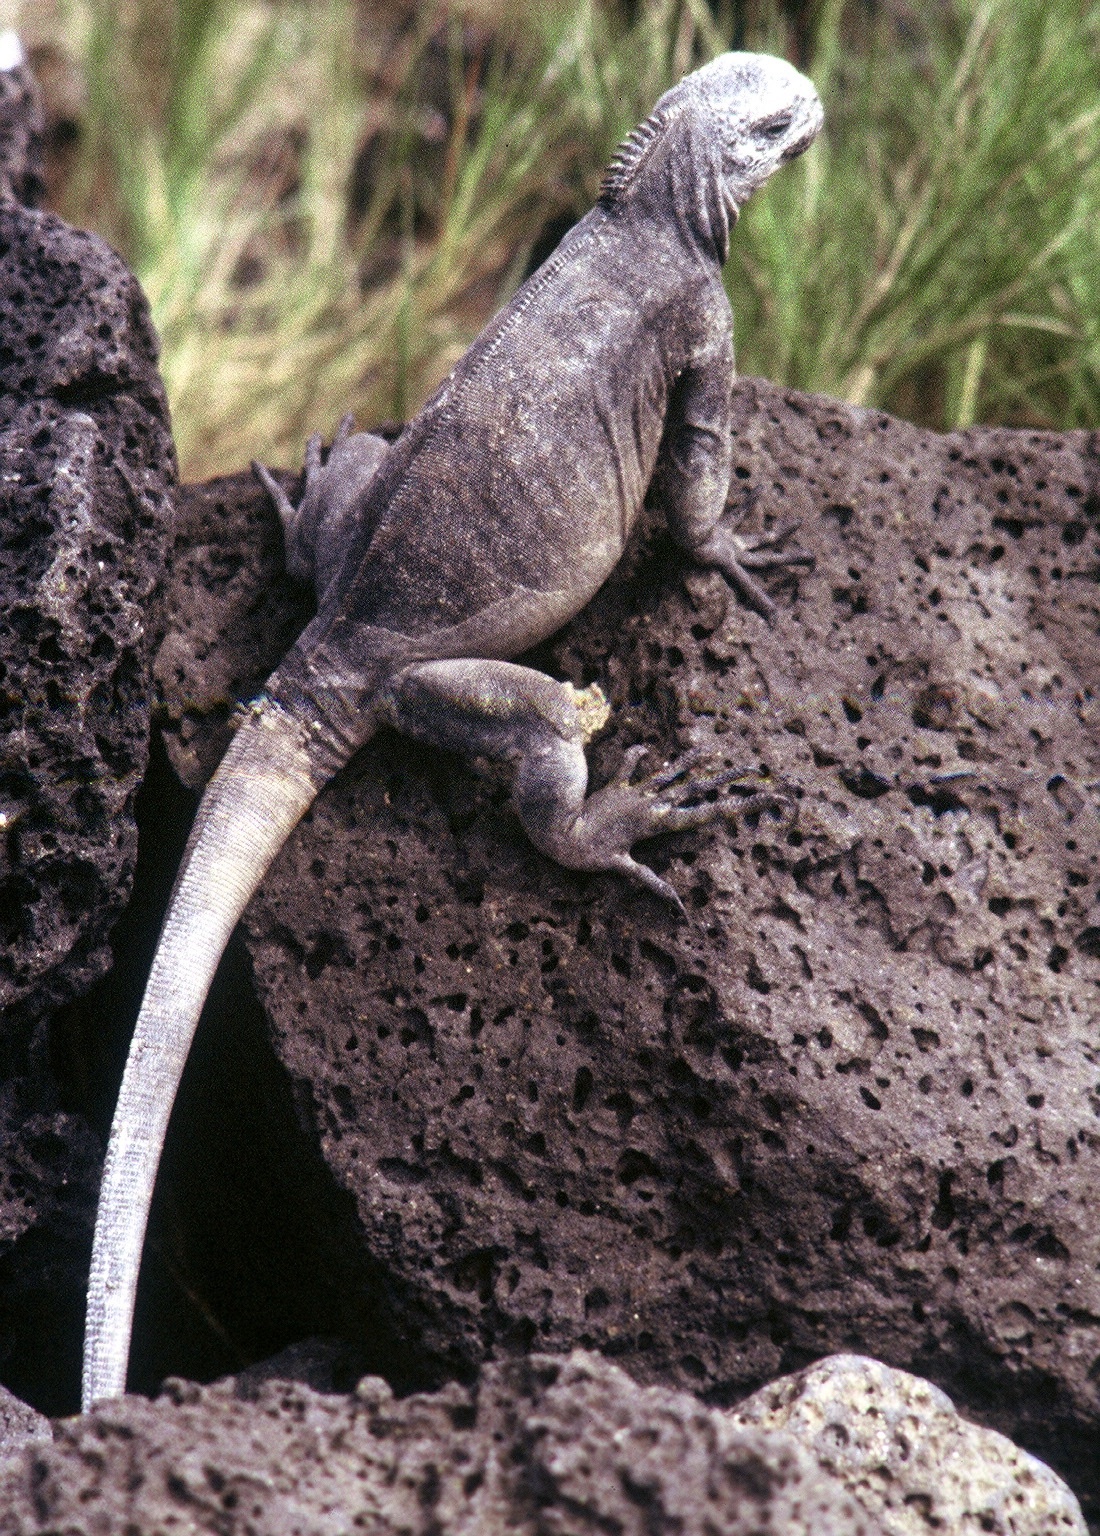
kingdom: Animalia
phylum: Chordata
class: Squamata
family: Iguanidae
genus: Amblyrhynchus
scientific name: Amblyrhynchus cristatus
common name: Marine iguana
